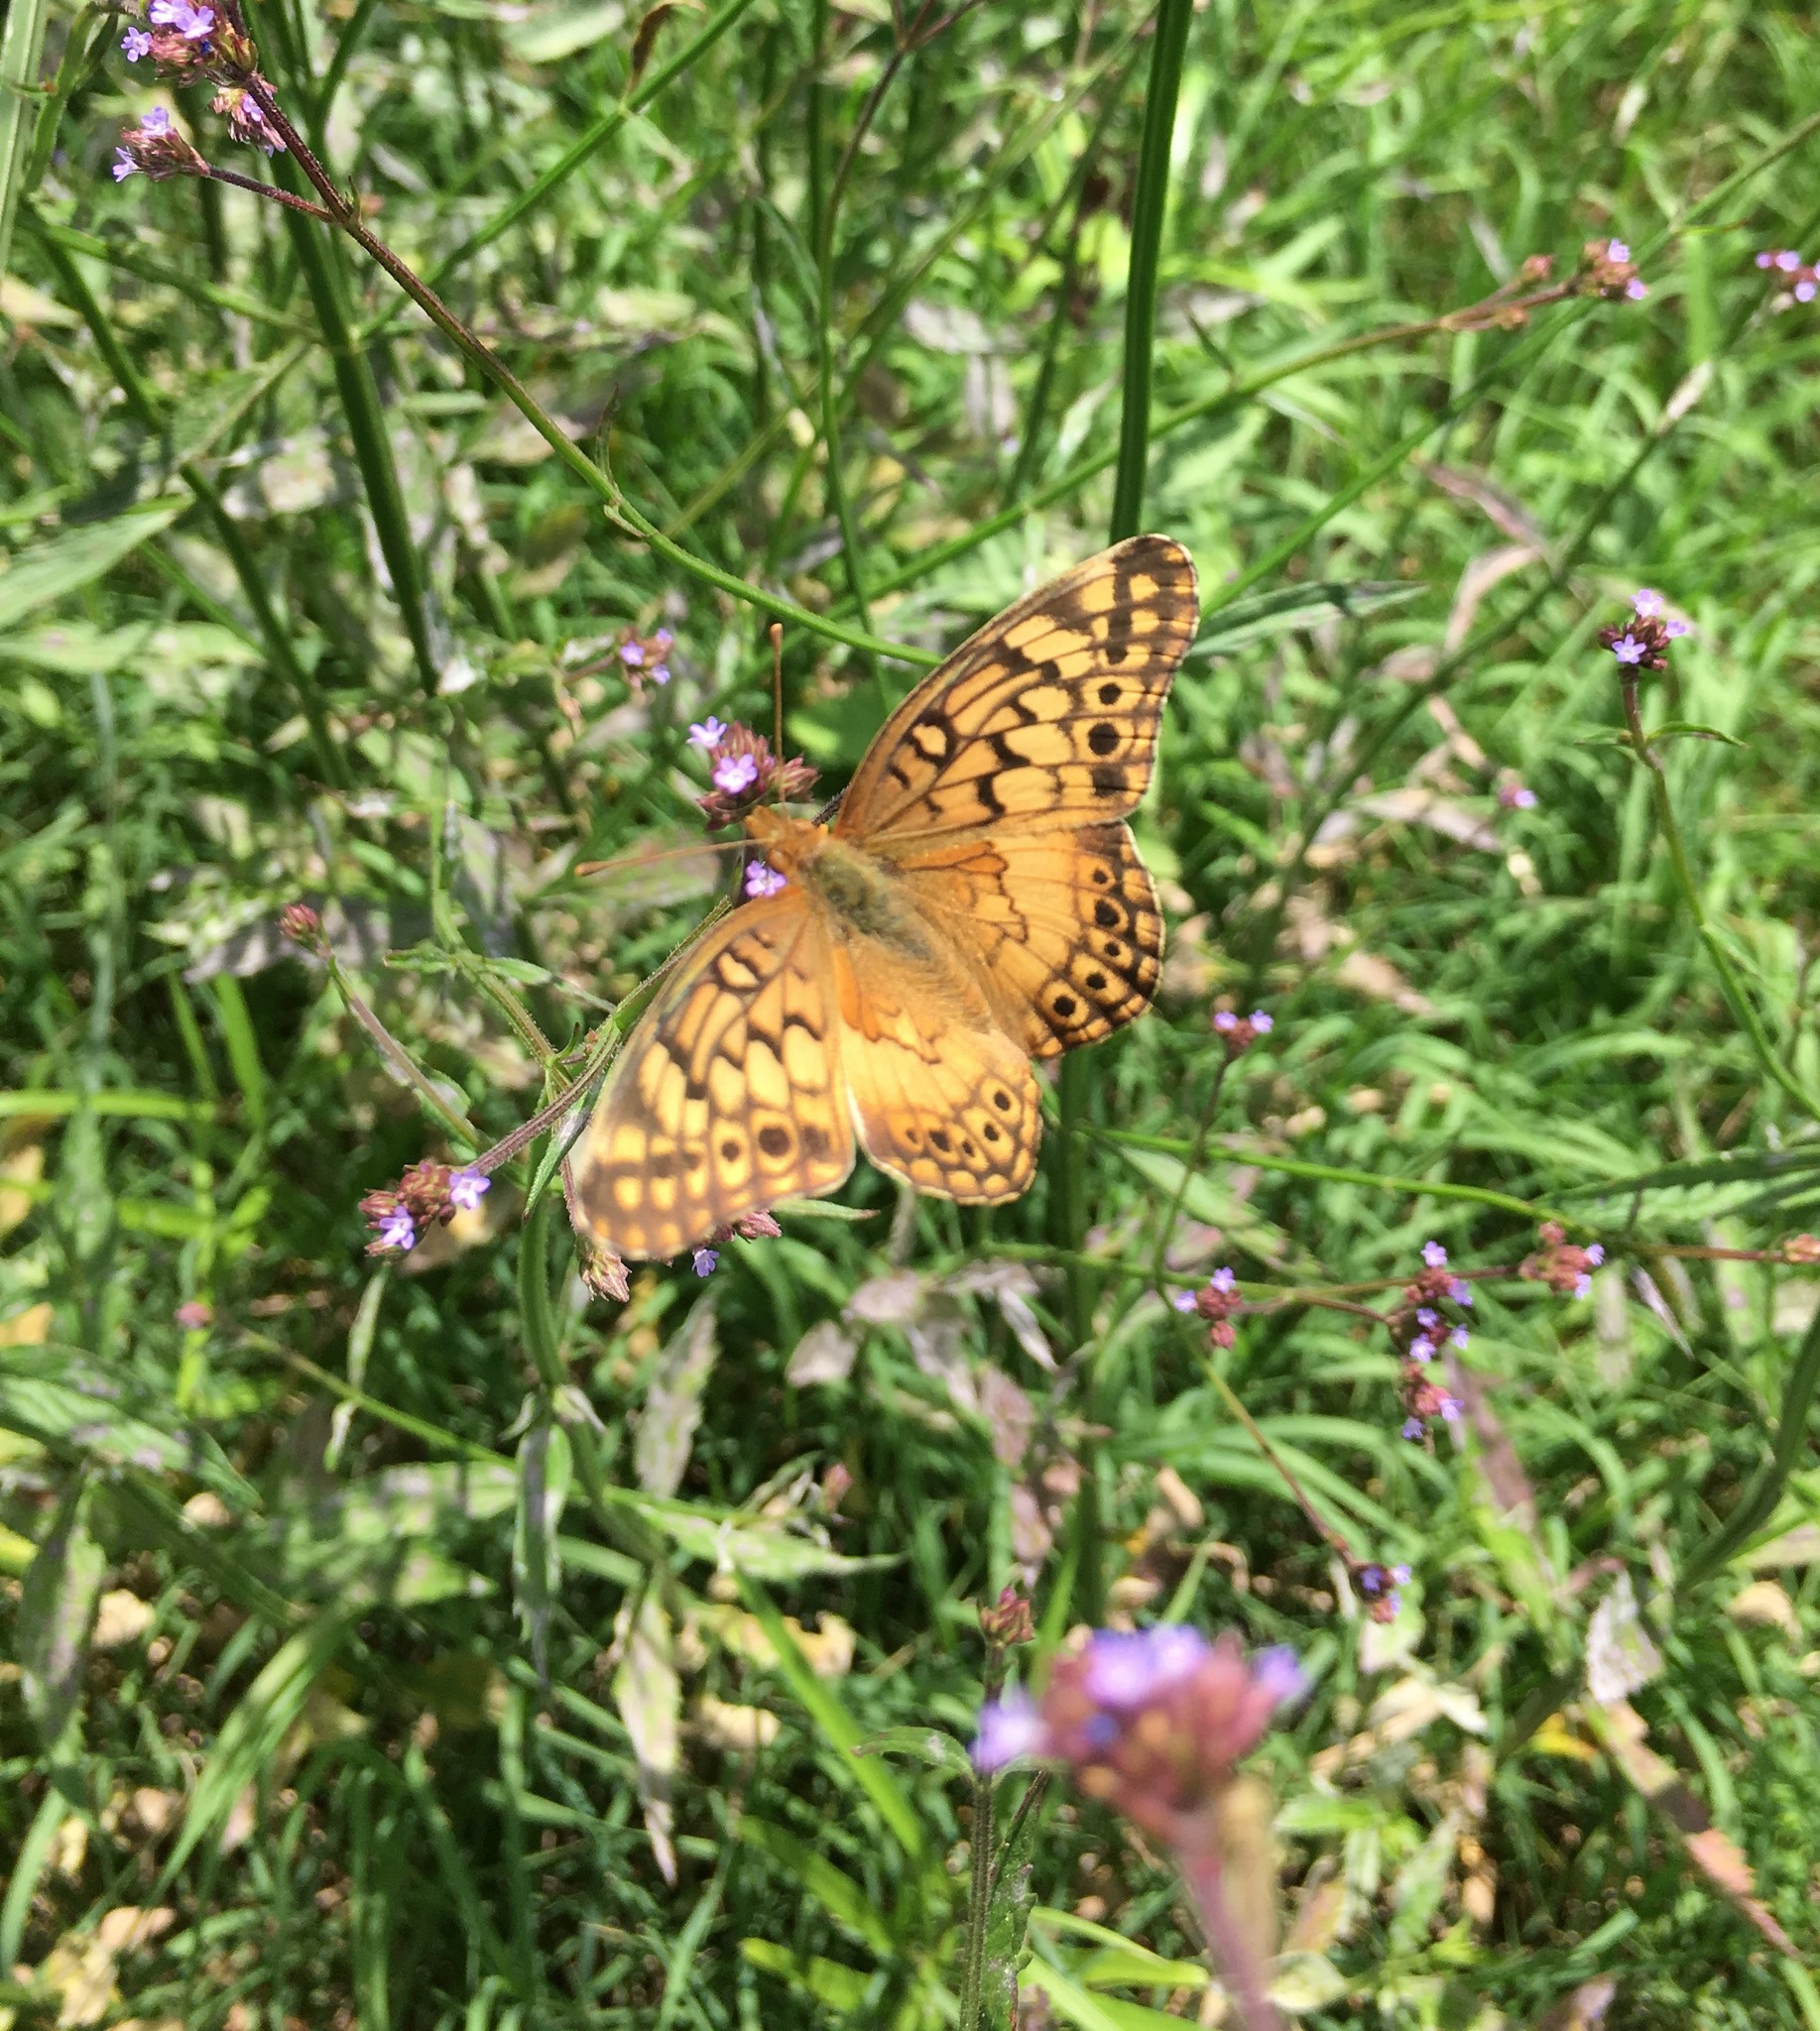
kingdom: Animalia
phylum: Arthropoda
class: Insecta
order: Lepidoptera
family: Nymphalidae
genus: Euptoieta
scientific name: Euptoieta hortensia
